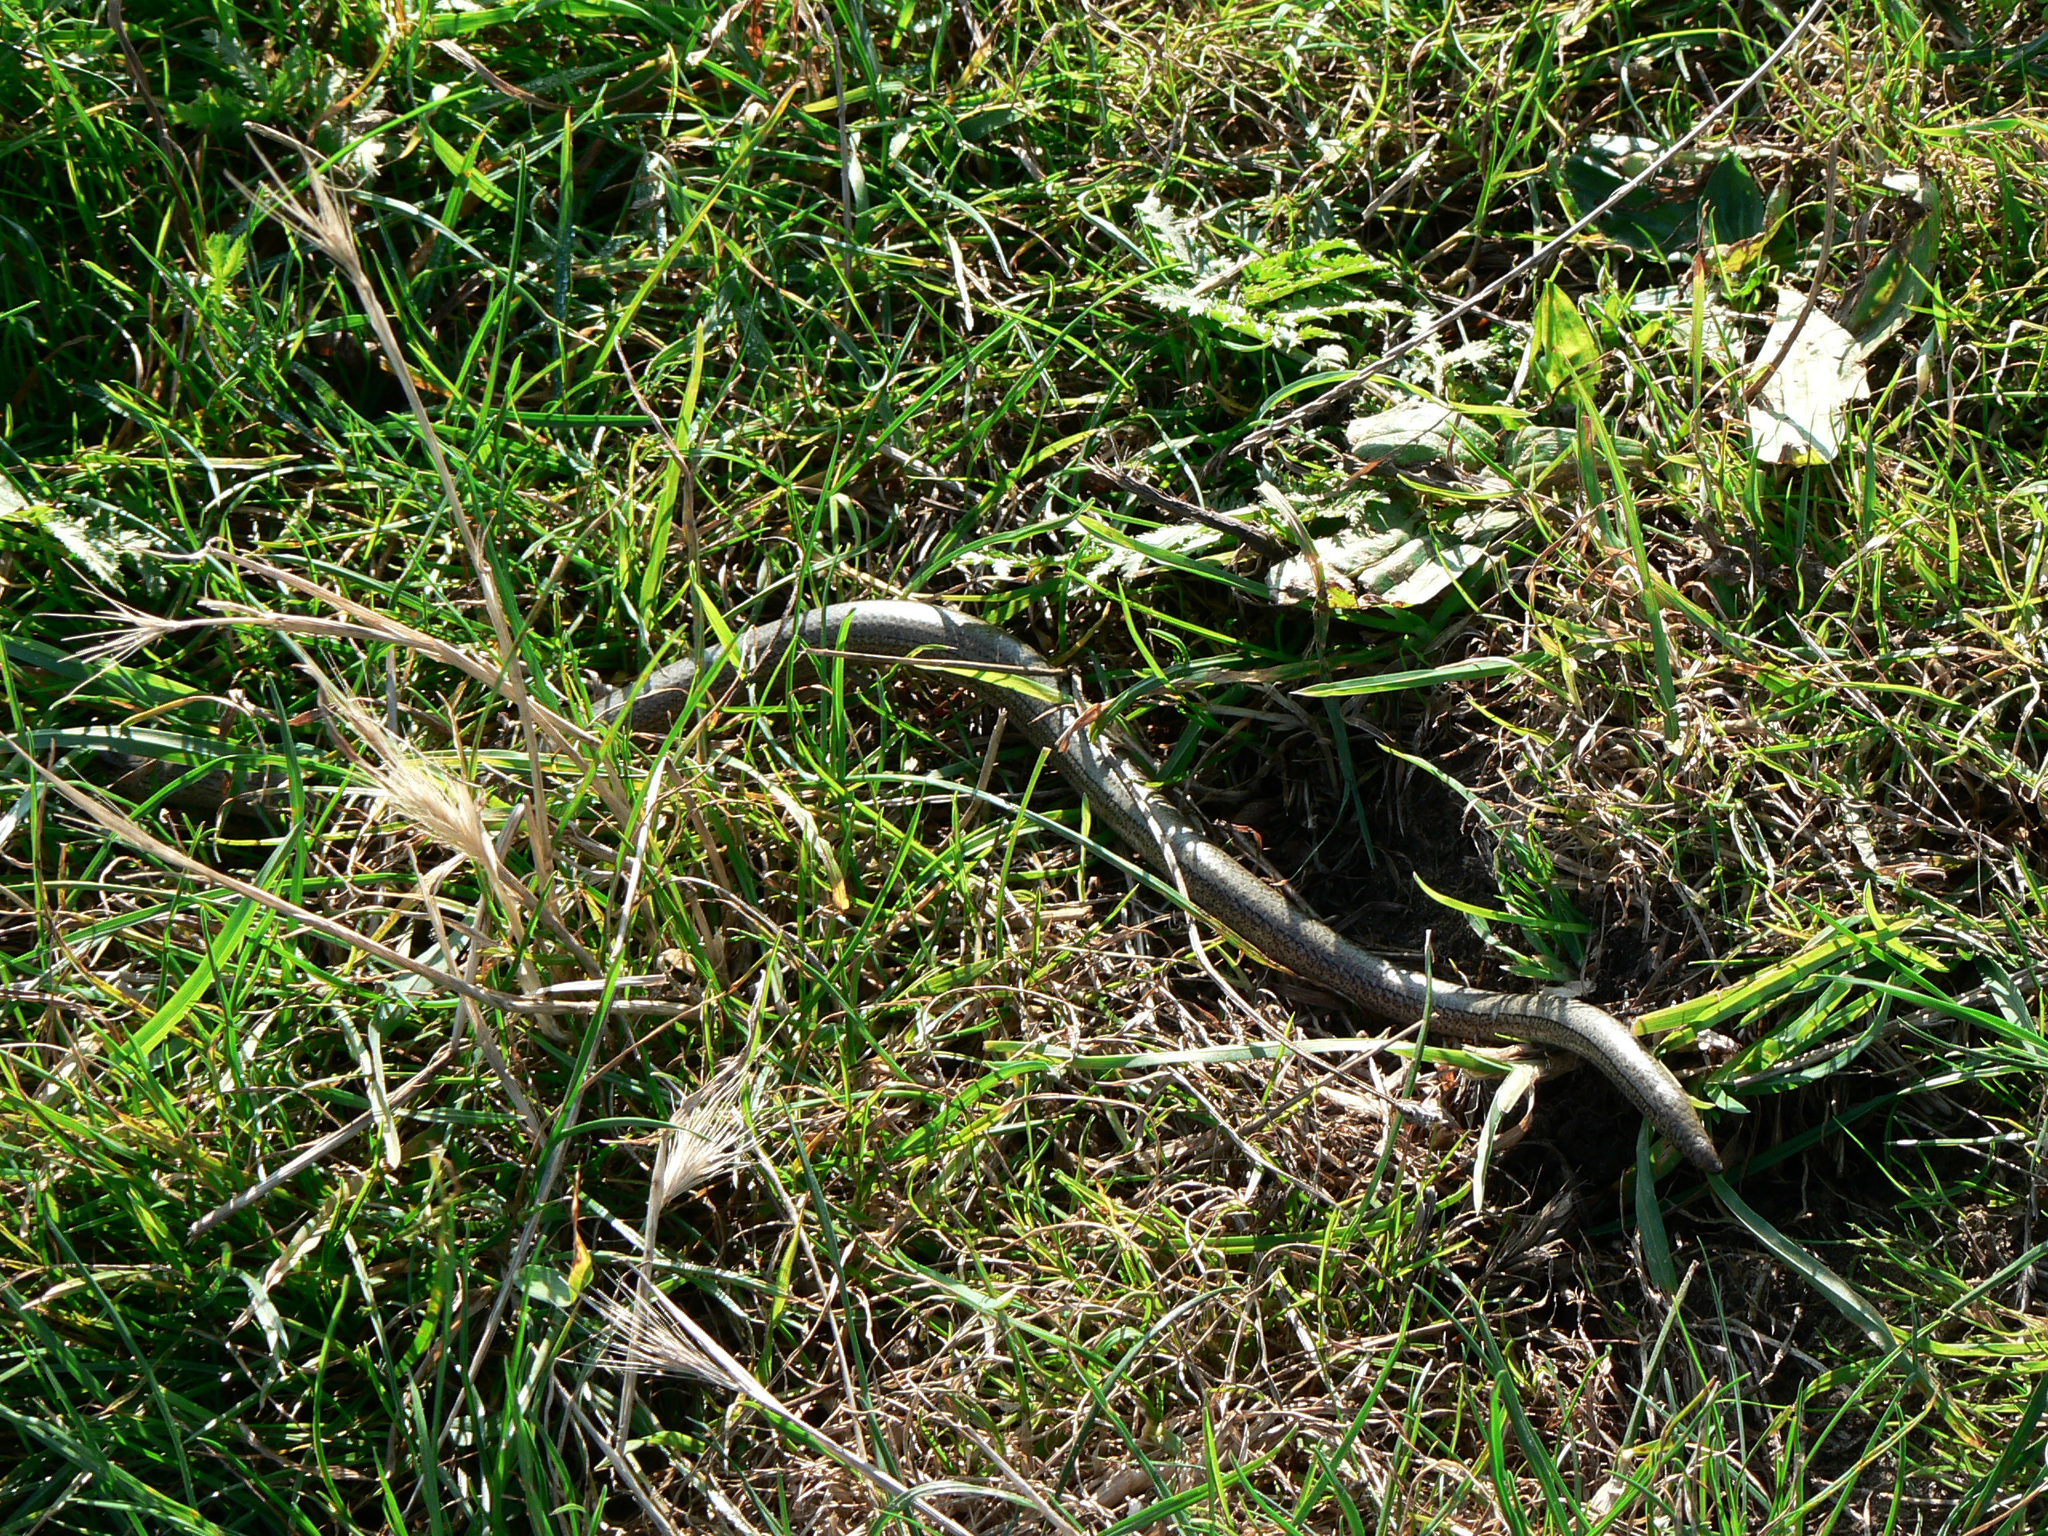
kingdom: Animalia
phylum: Chordata
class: Squamata
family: Anguidae
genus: Anguis
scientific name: Anguis fragilis
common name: Slow worm
